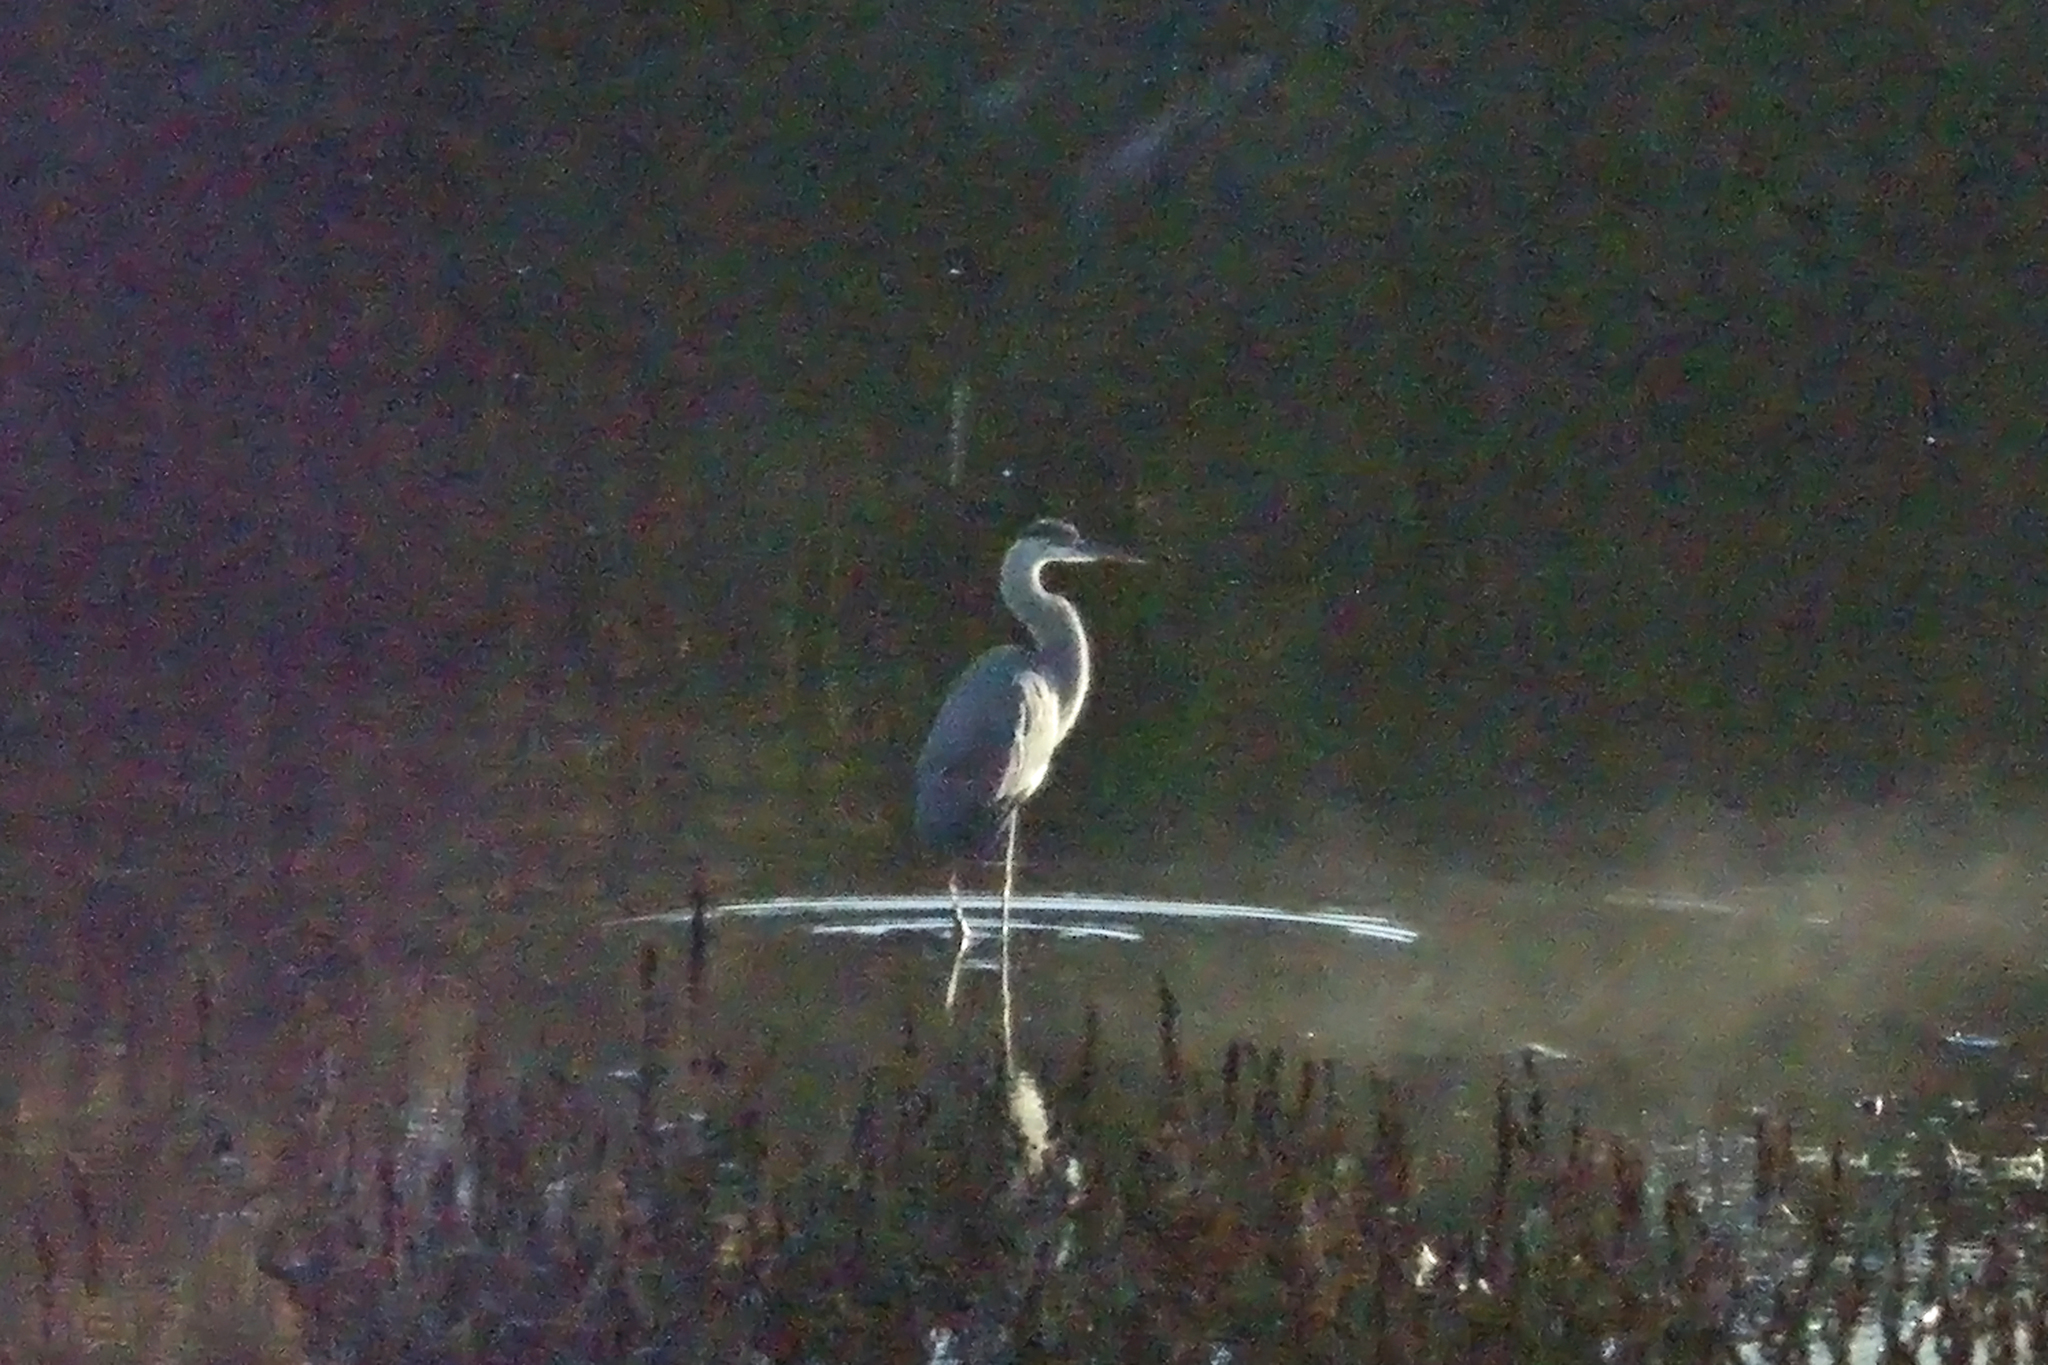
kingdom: Animalia
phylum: Chordata
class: Aves
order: Pelecaniformes
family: Ardeidae
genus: Ardea
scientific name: Ardea herodias
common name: Great blue heron
